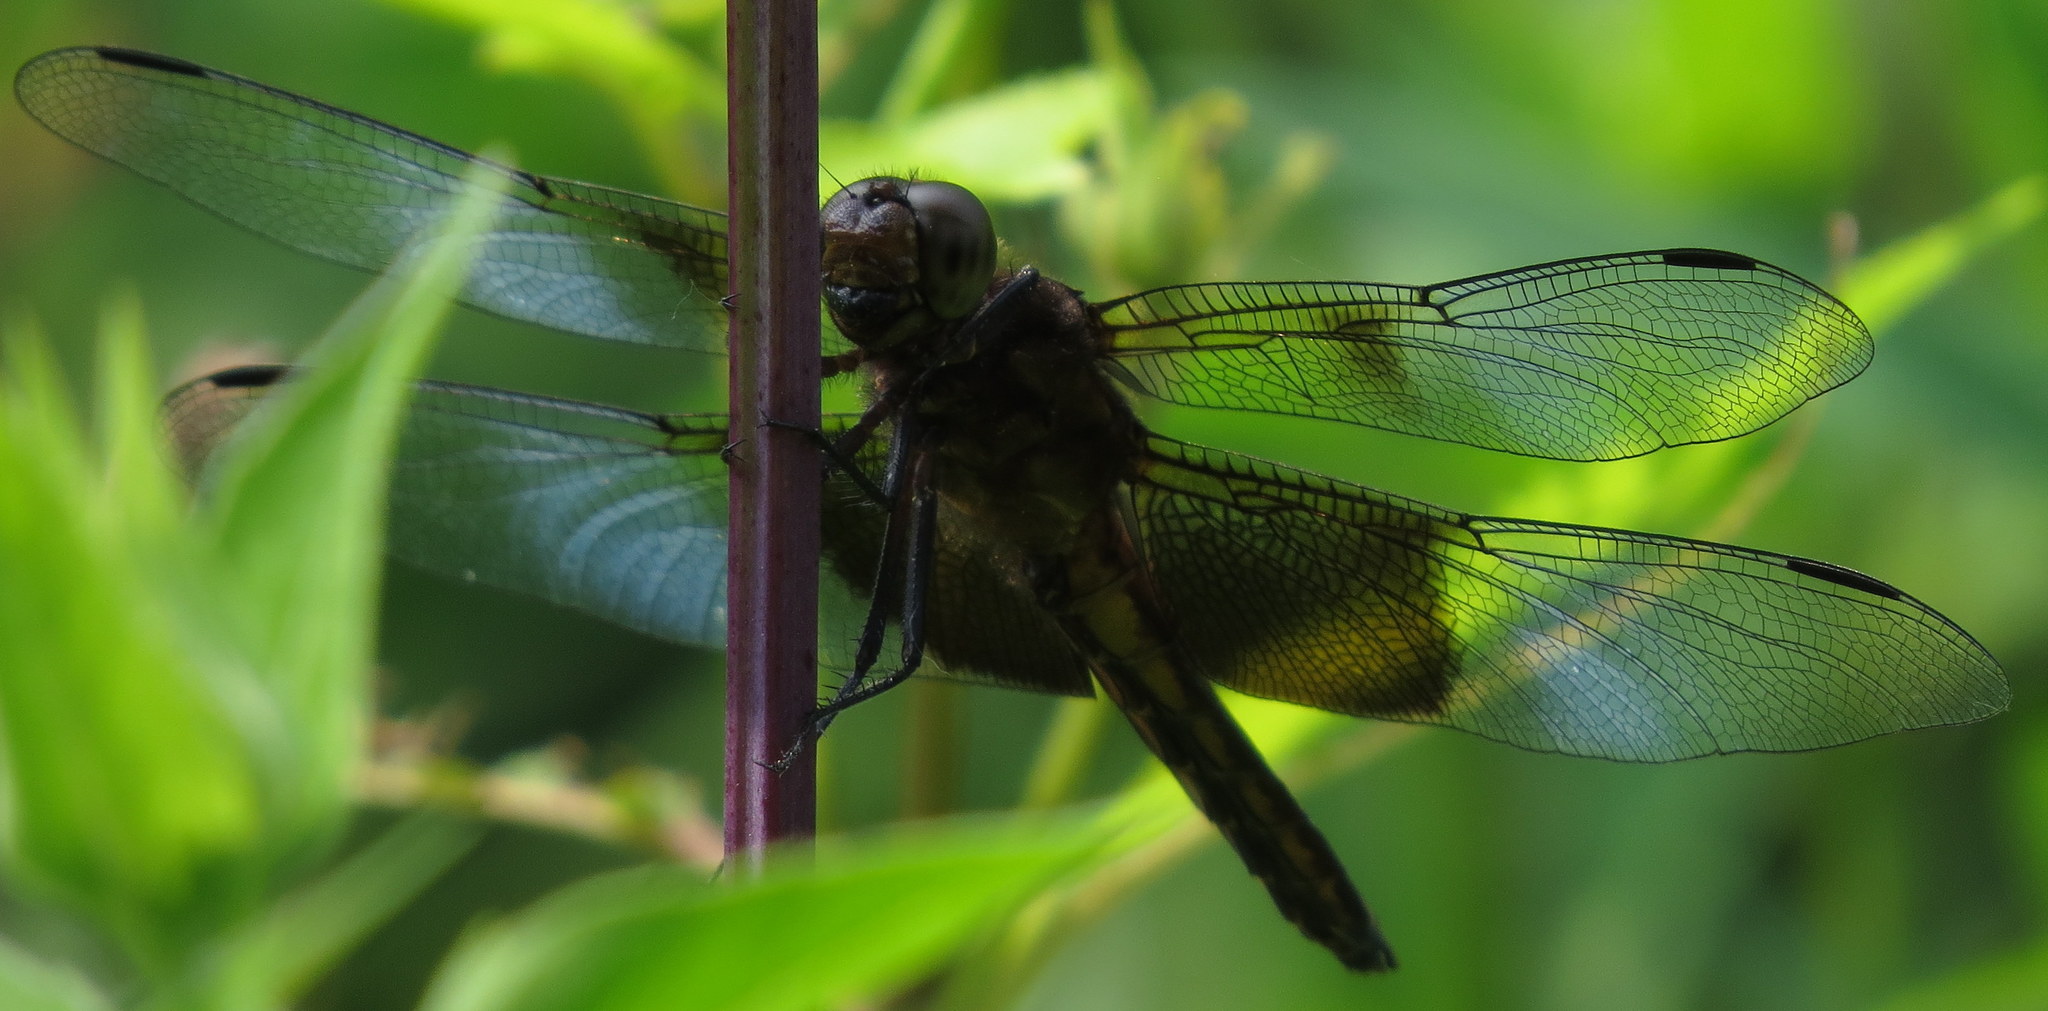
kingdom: Animalia
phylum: Arthropoda
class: Insecta
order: Odonata
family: Libellulidae
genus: Libellula
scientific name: Libellula luctuosa
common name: Widow skimmer
